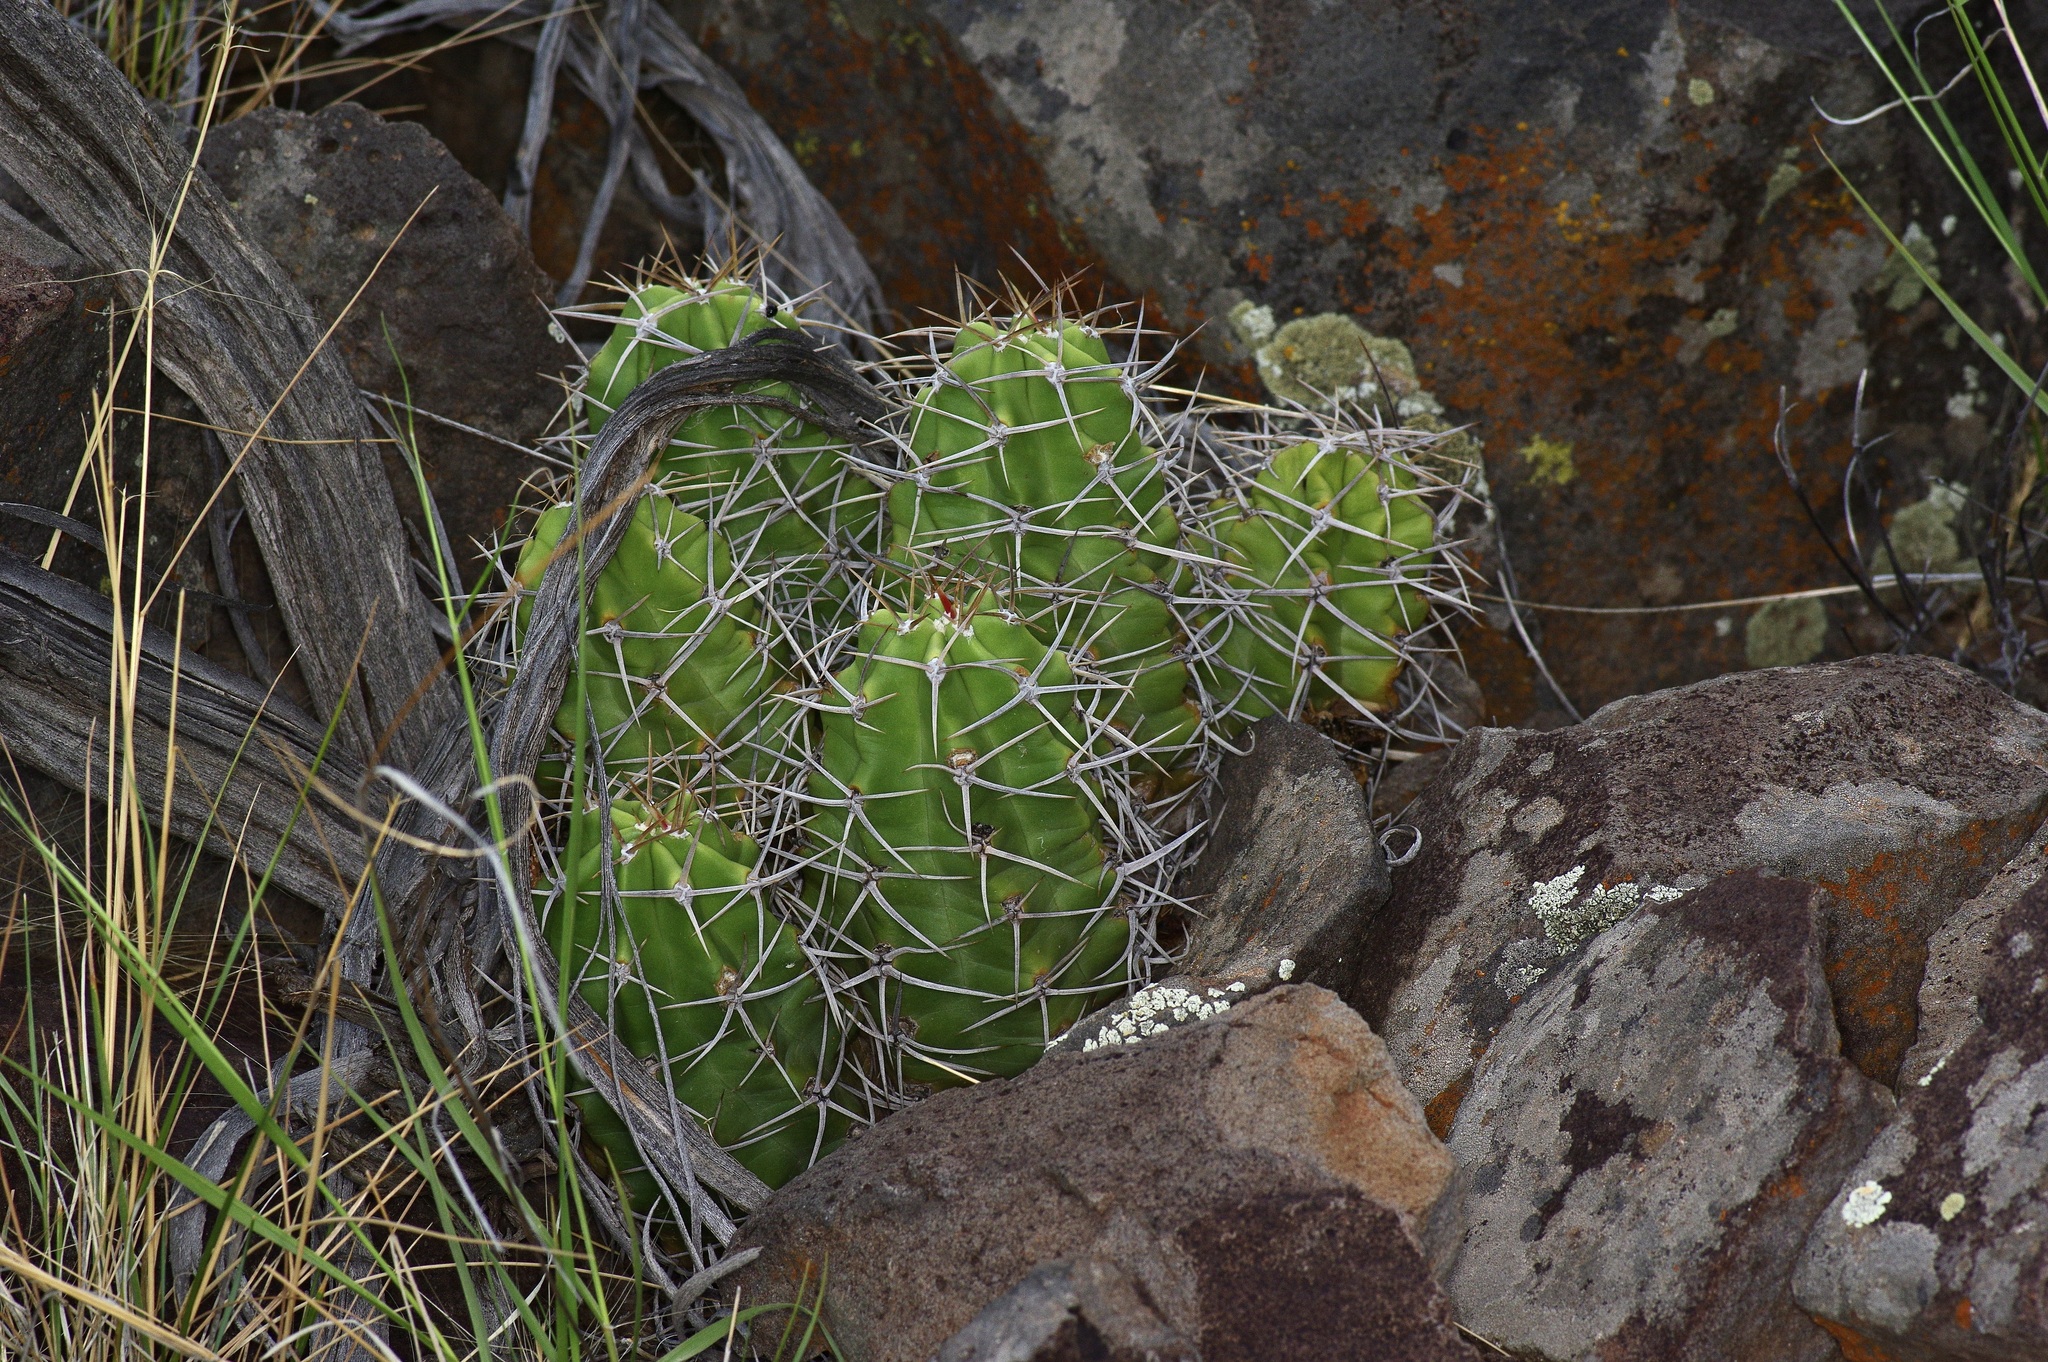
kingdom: Plantae
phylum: Tracheophyta
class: Magnoliopsida
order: Caryophyllales
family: Cactaceae
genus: Echinocereus
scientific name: Echinocereus triglochidiatus
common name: Claretcup hedgehog
